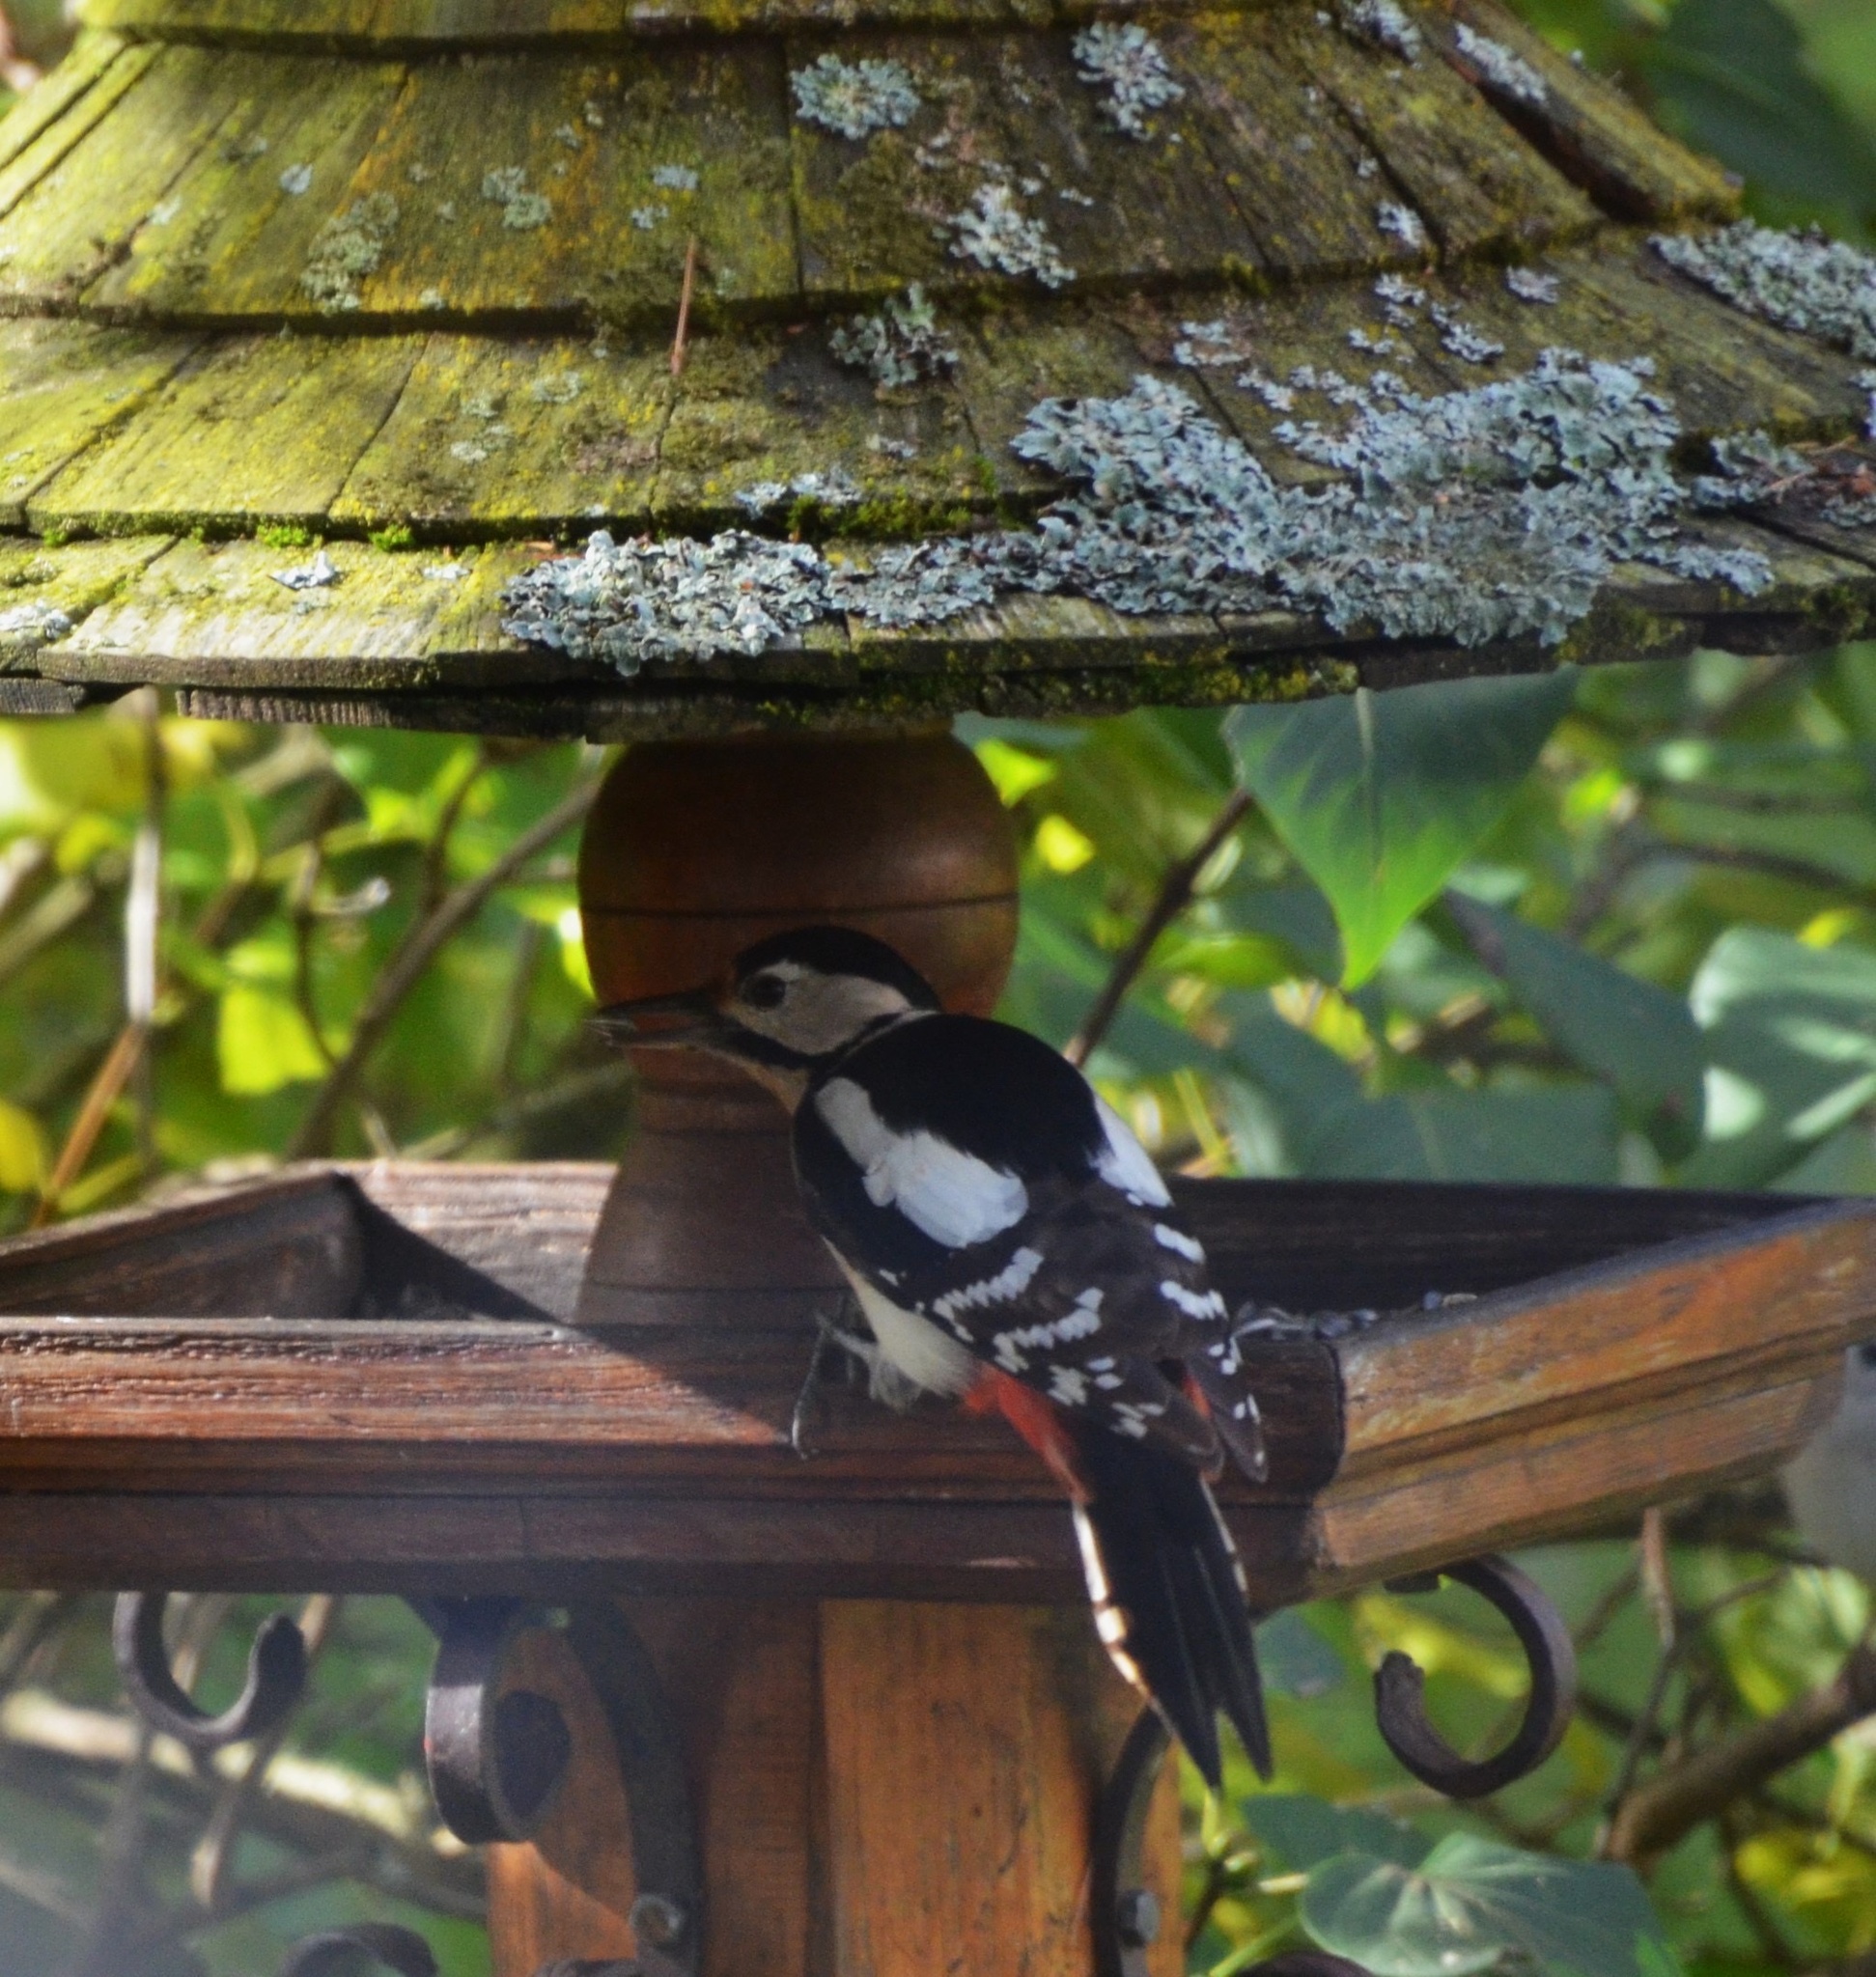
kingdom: Animalia
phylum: Chordata
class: Aves
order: Piciformes
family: Picidae
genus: Dendrocopos
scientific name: Dendrocopos major
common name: Great spotted woodpecker
